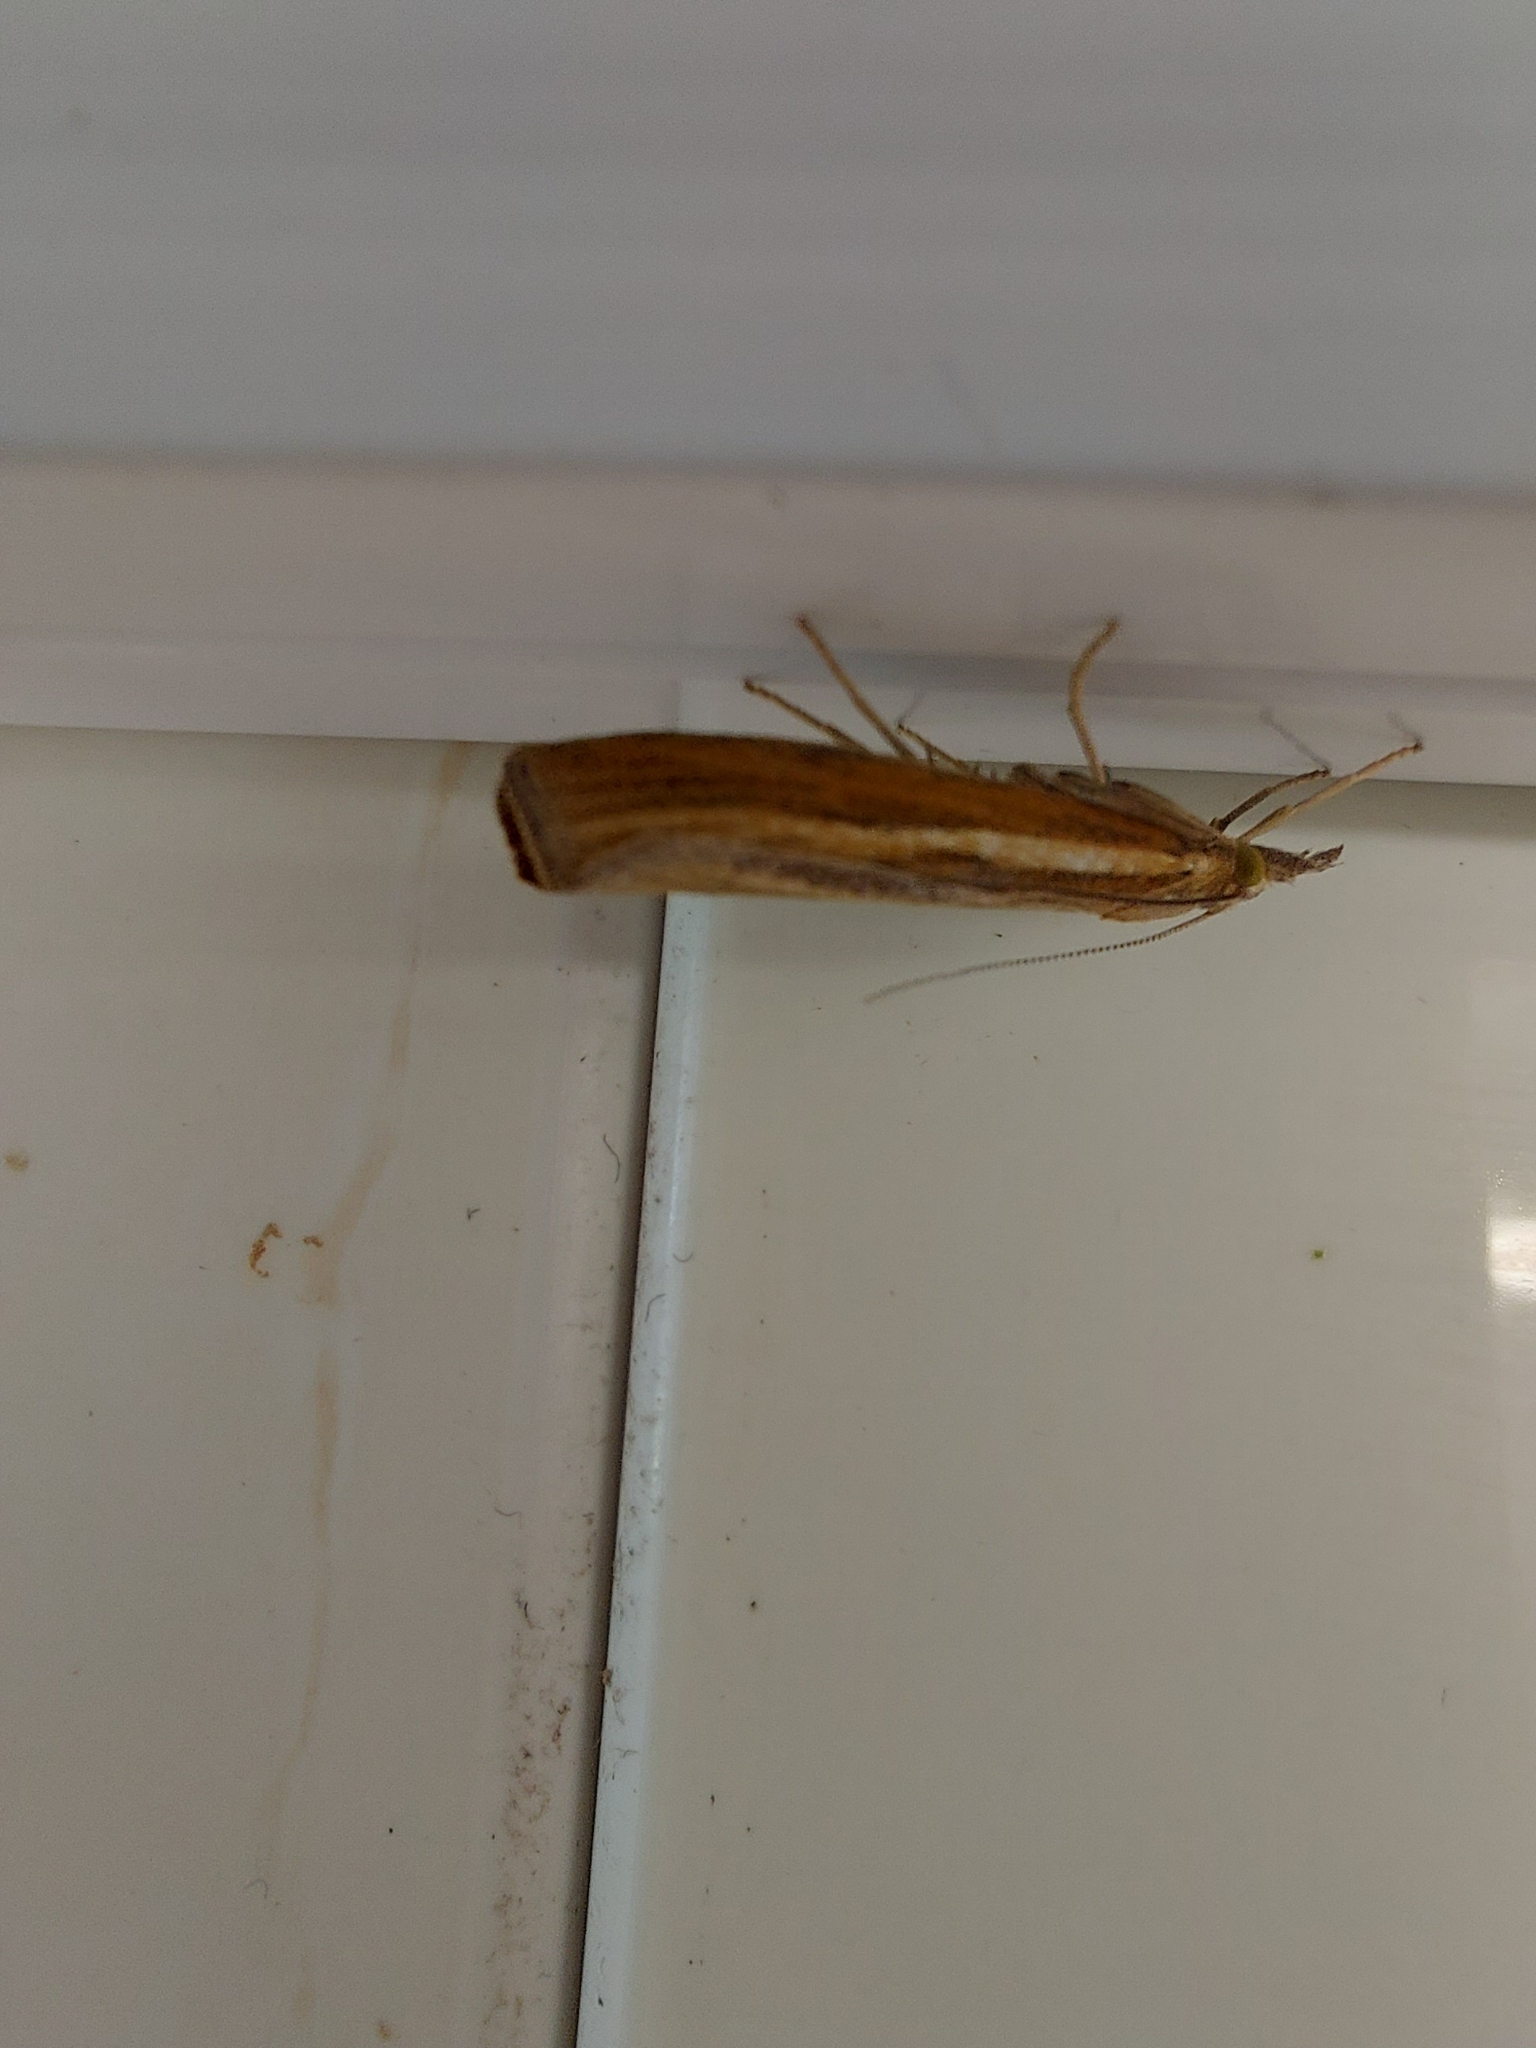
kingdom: Animalia
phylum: Arthropoda
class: Insecta
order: Lepidoptera
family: Crambidae
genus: Agriphila
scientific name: Agriphila tristellus
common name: Common grass-veneer
